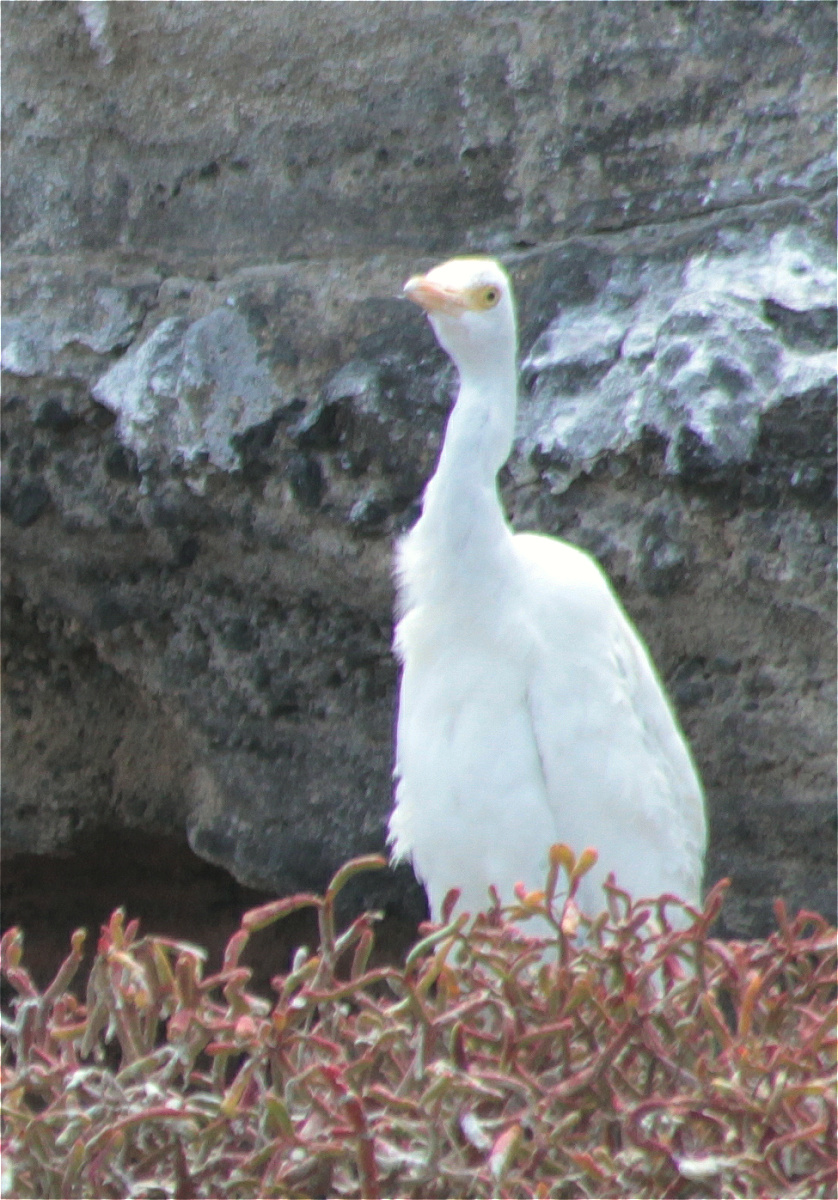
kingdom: Animalia
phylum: Chordata
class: Aves
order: Pelecaniformes
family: Ardeidae
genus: Bubulcus
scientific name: Bubulcus ibis
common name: Cattle egret
